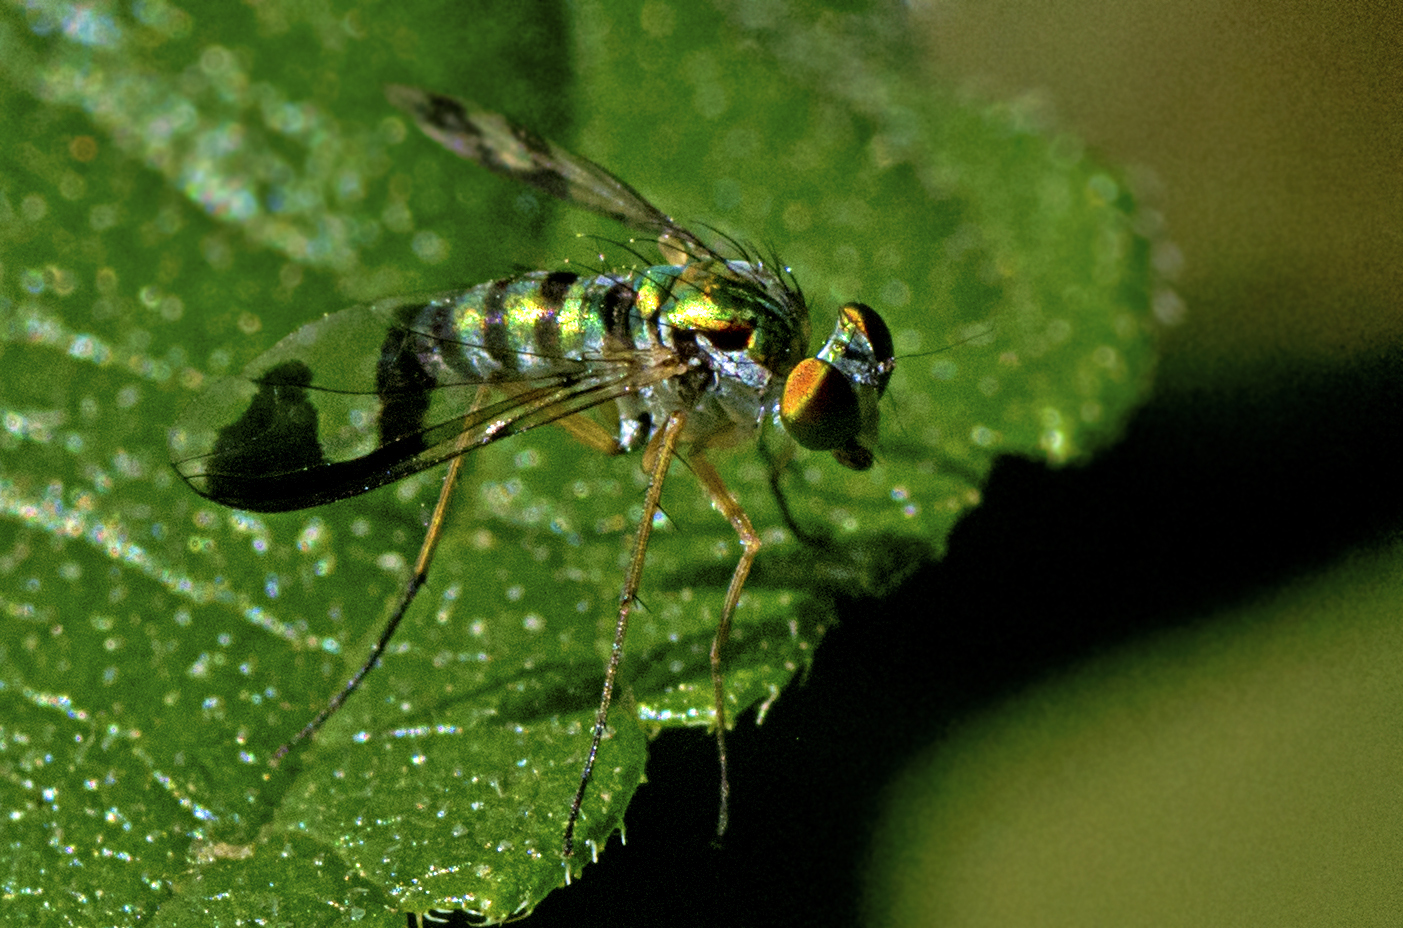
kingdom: Animalia
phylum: Arthropoda
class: Insecta
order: Diptera
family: Dolichopodidae
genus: Austrosciapus
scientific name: Austrosciapus
